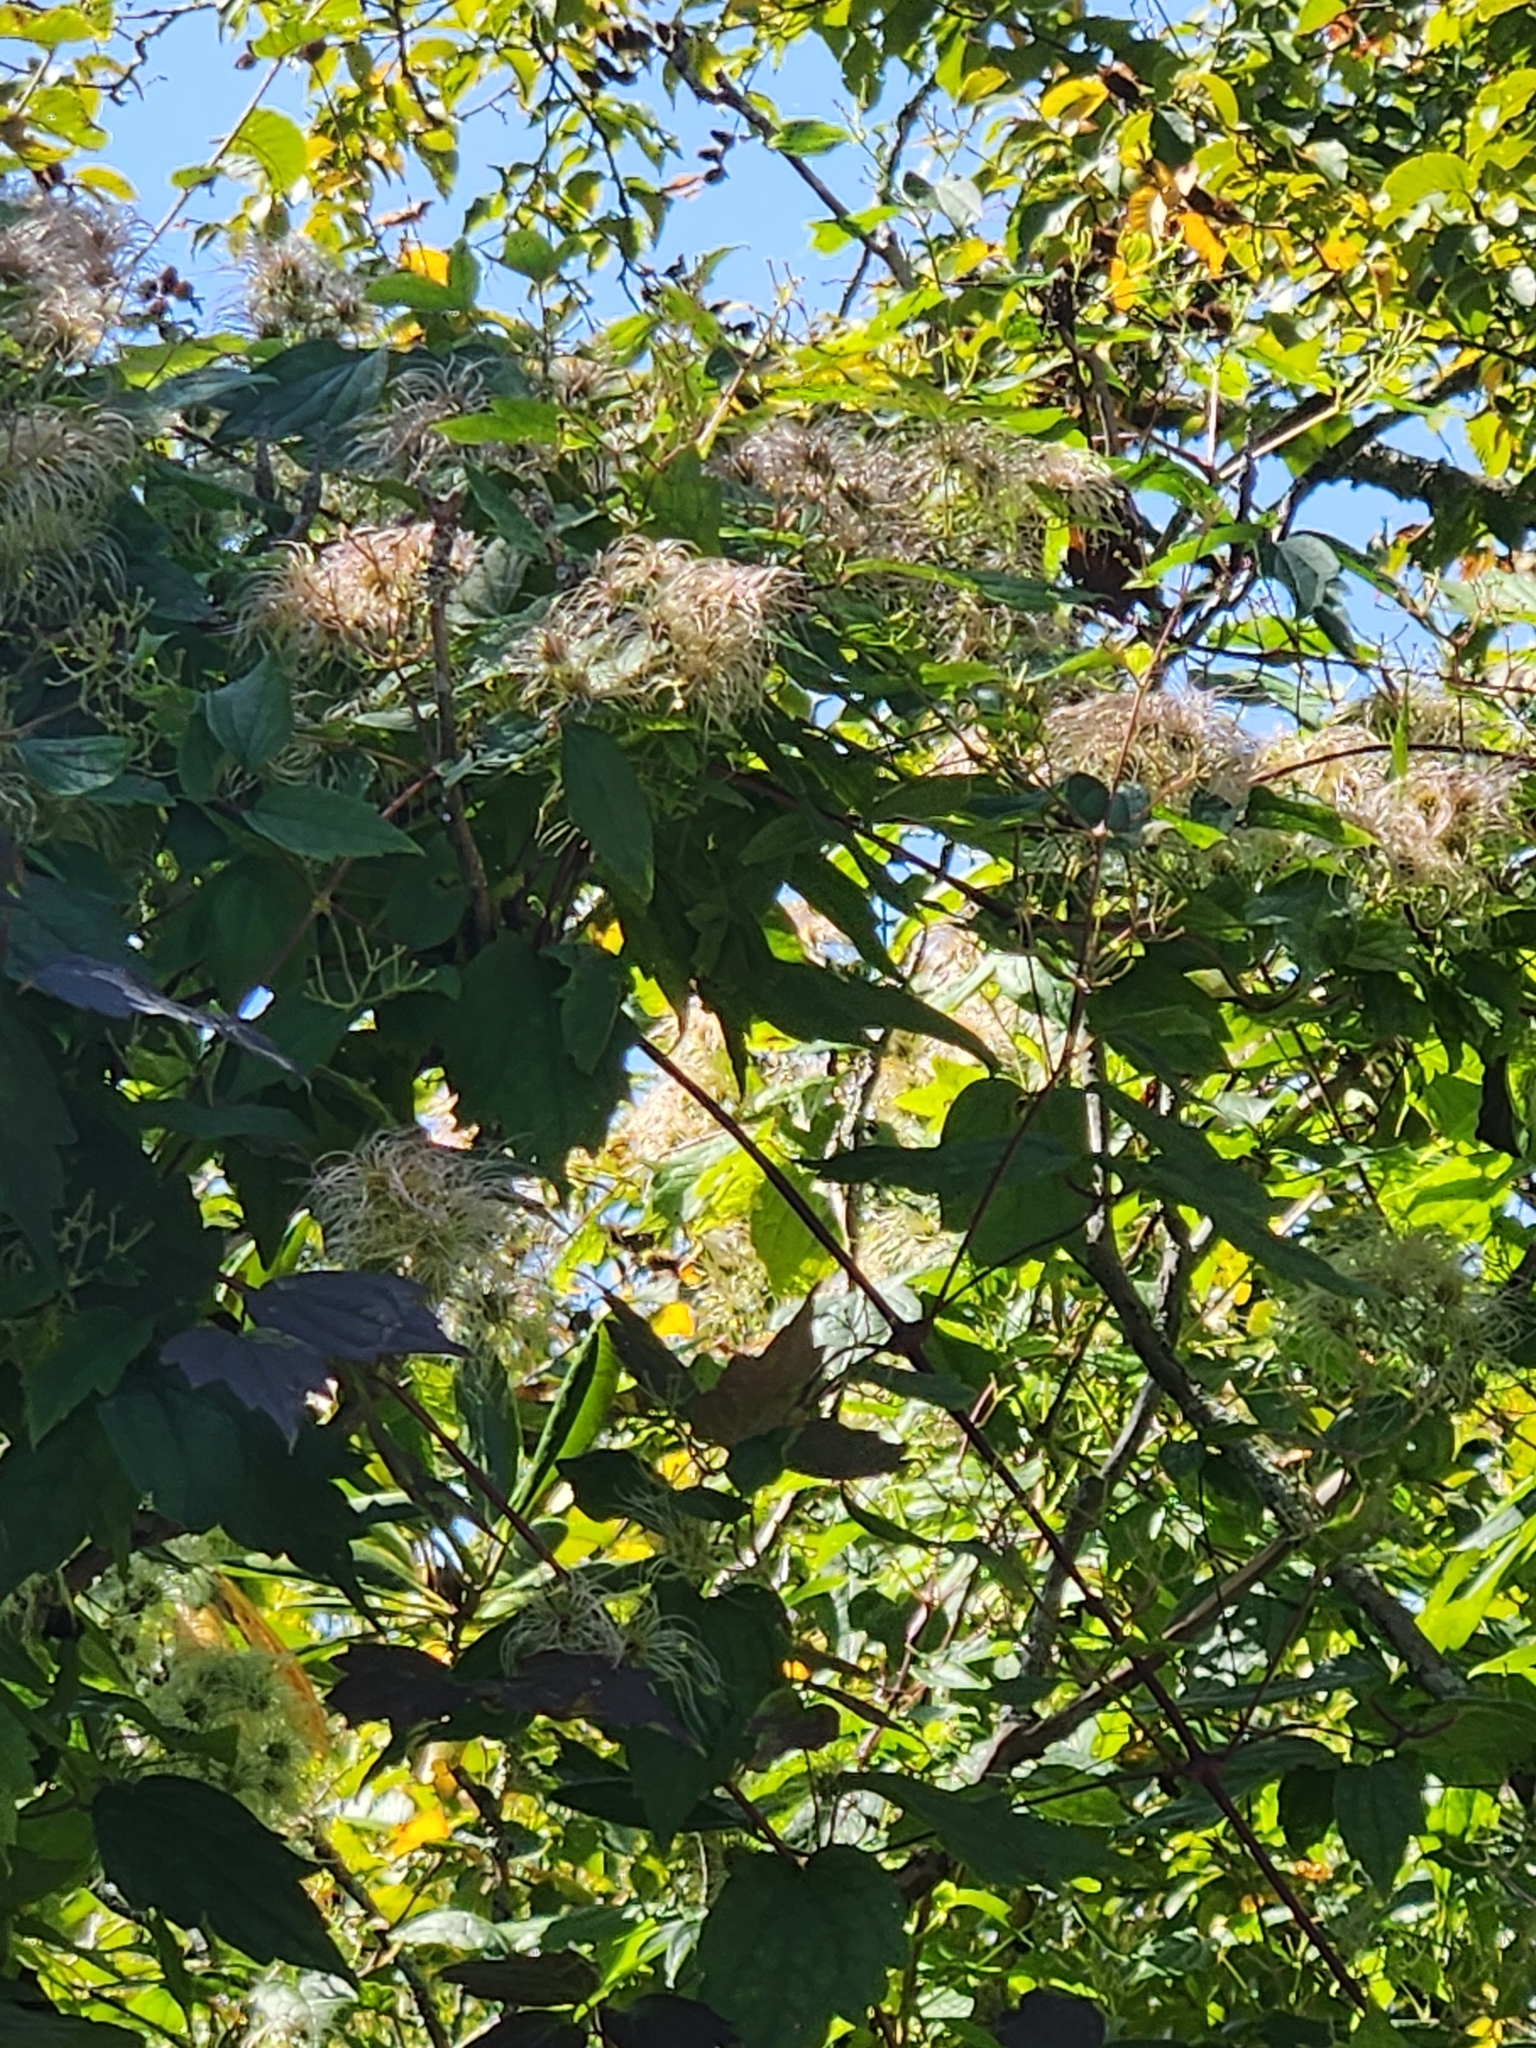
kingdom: Plantae
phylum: Tracheophyta
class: Magnoliopsida
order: Ranunculales
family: Ranunculaceae
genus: Clematis
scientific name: Clematis virginiana
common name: Virgin's-bower
